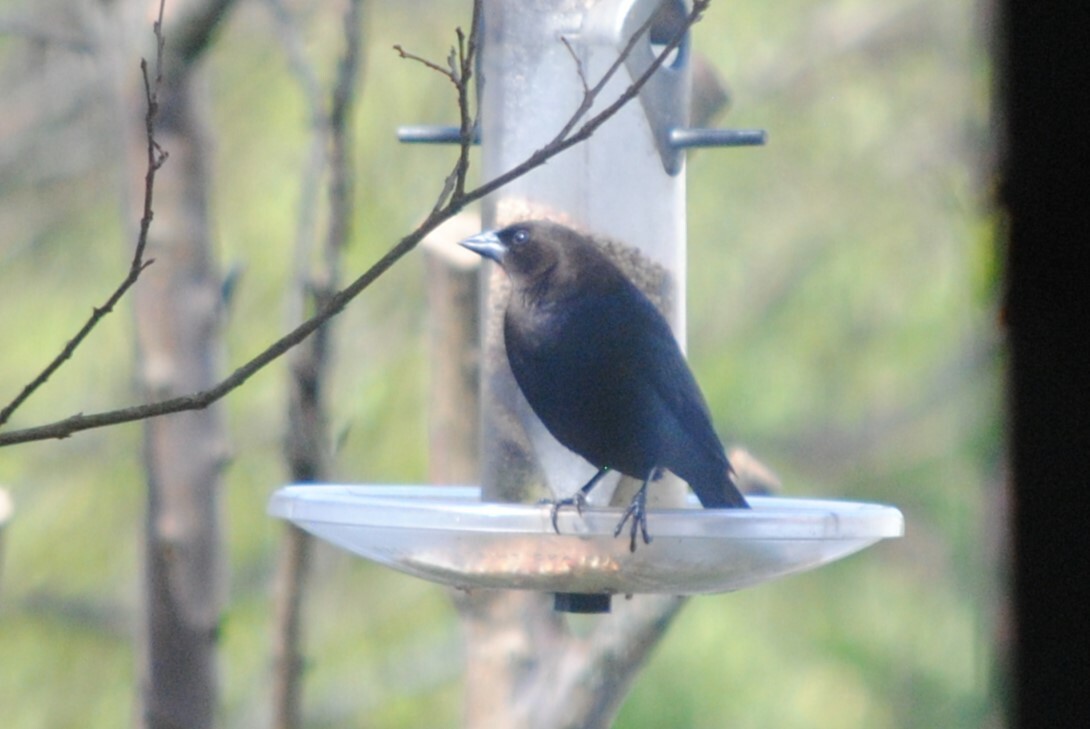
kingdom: Animalia
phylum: Chordata
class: Aves
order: Passeriformes
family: Icteridae
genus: Molothrus
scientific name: Molothrus ater
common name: Brown-headed cowbird
